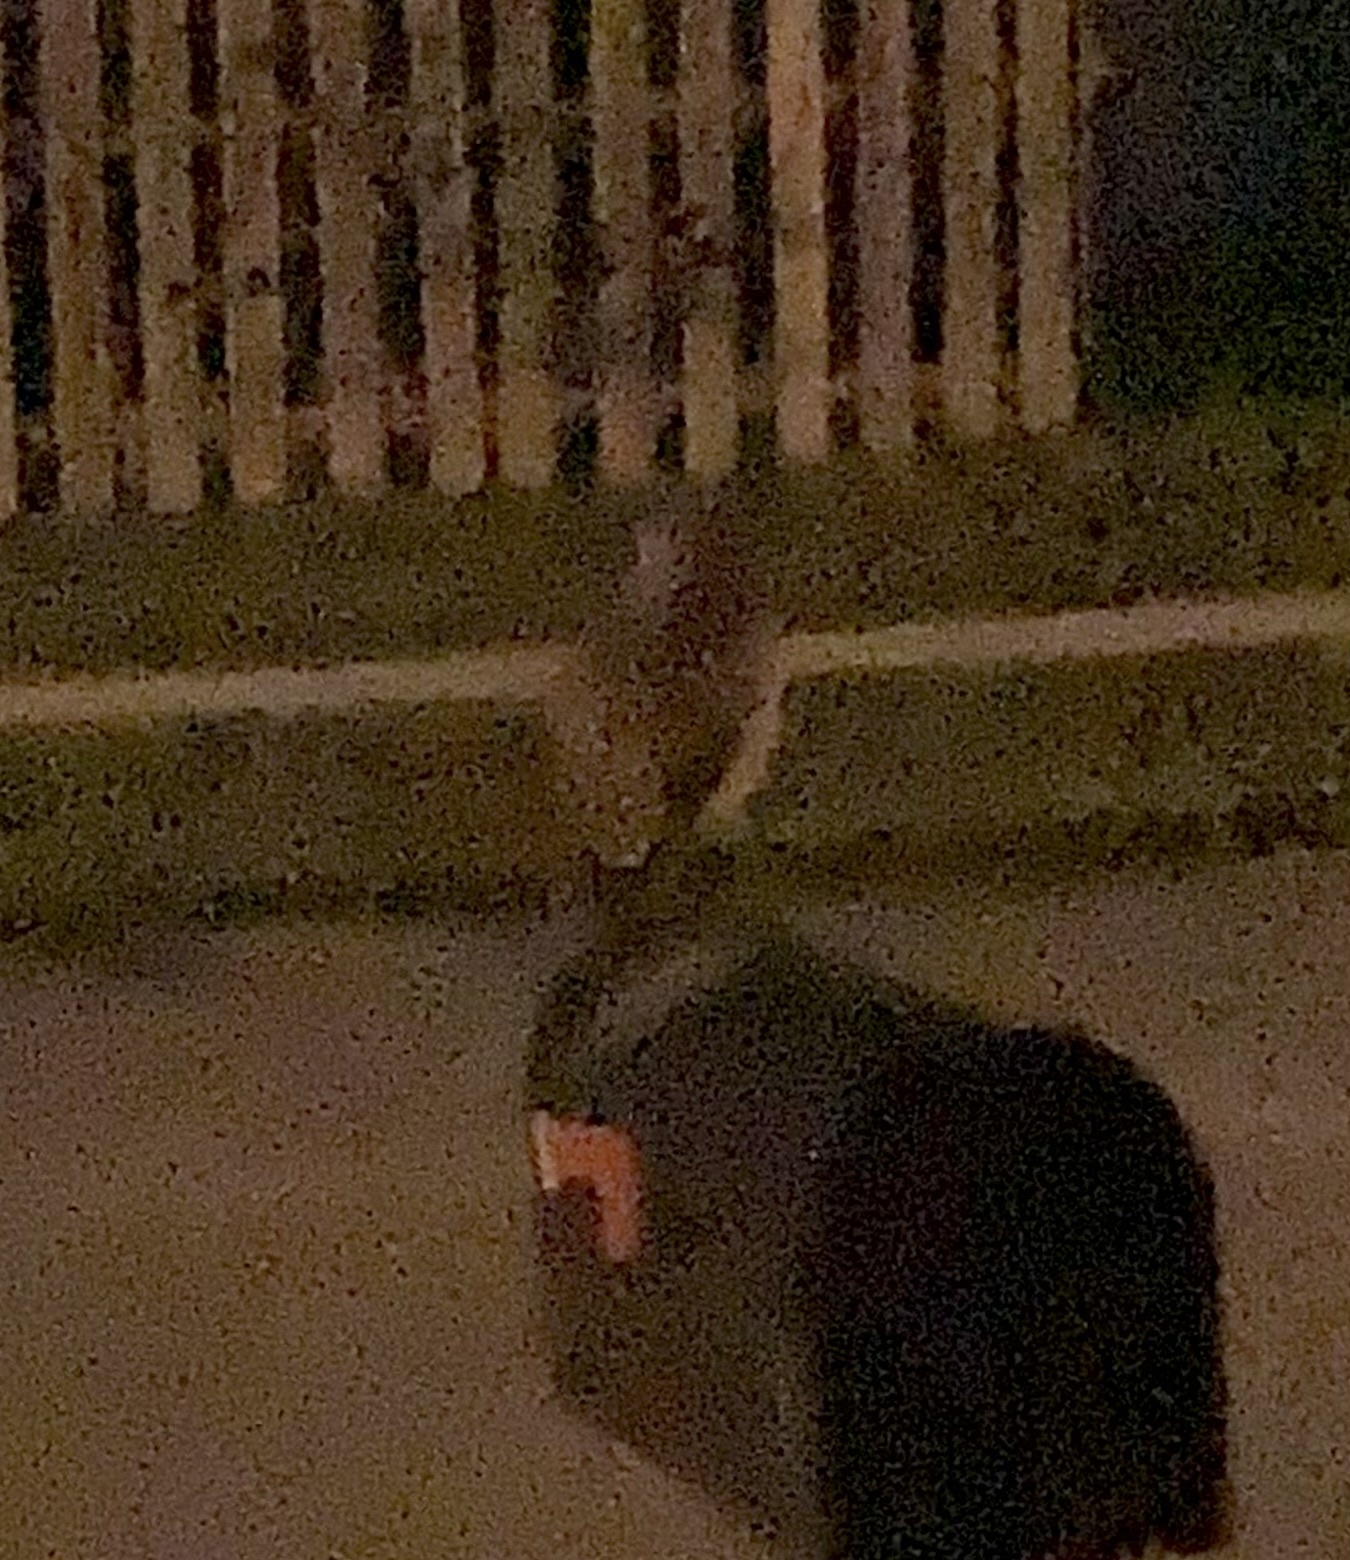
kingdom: Animalia
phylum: Chordata
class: Aves
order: Strigiformes
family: Strigidae
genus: Athene
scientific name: Athene cunicularia
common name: Burrowing owl
